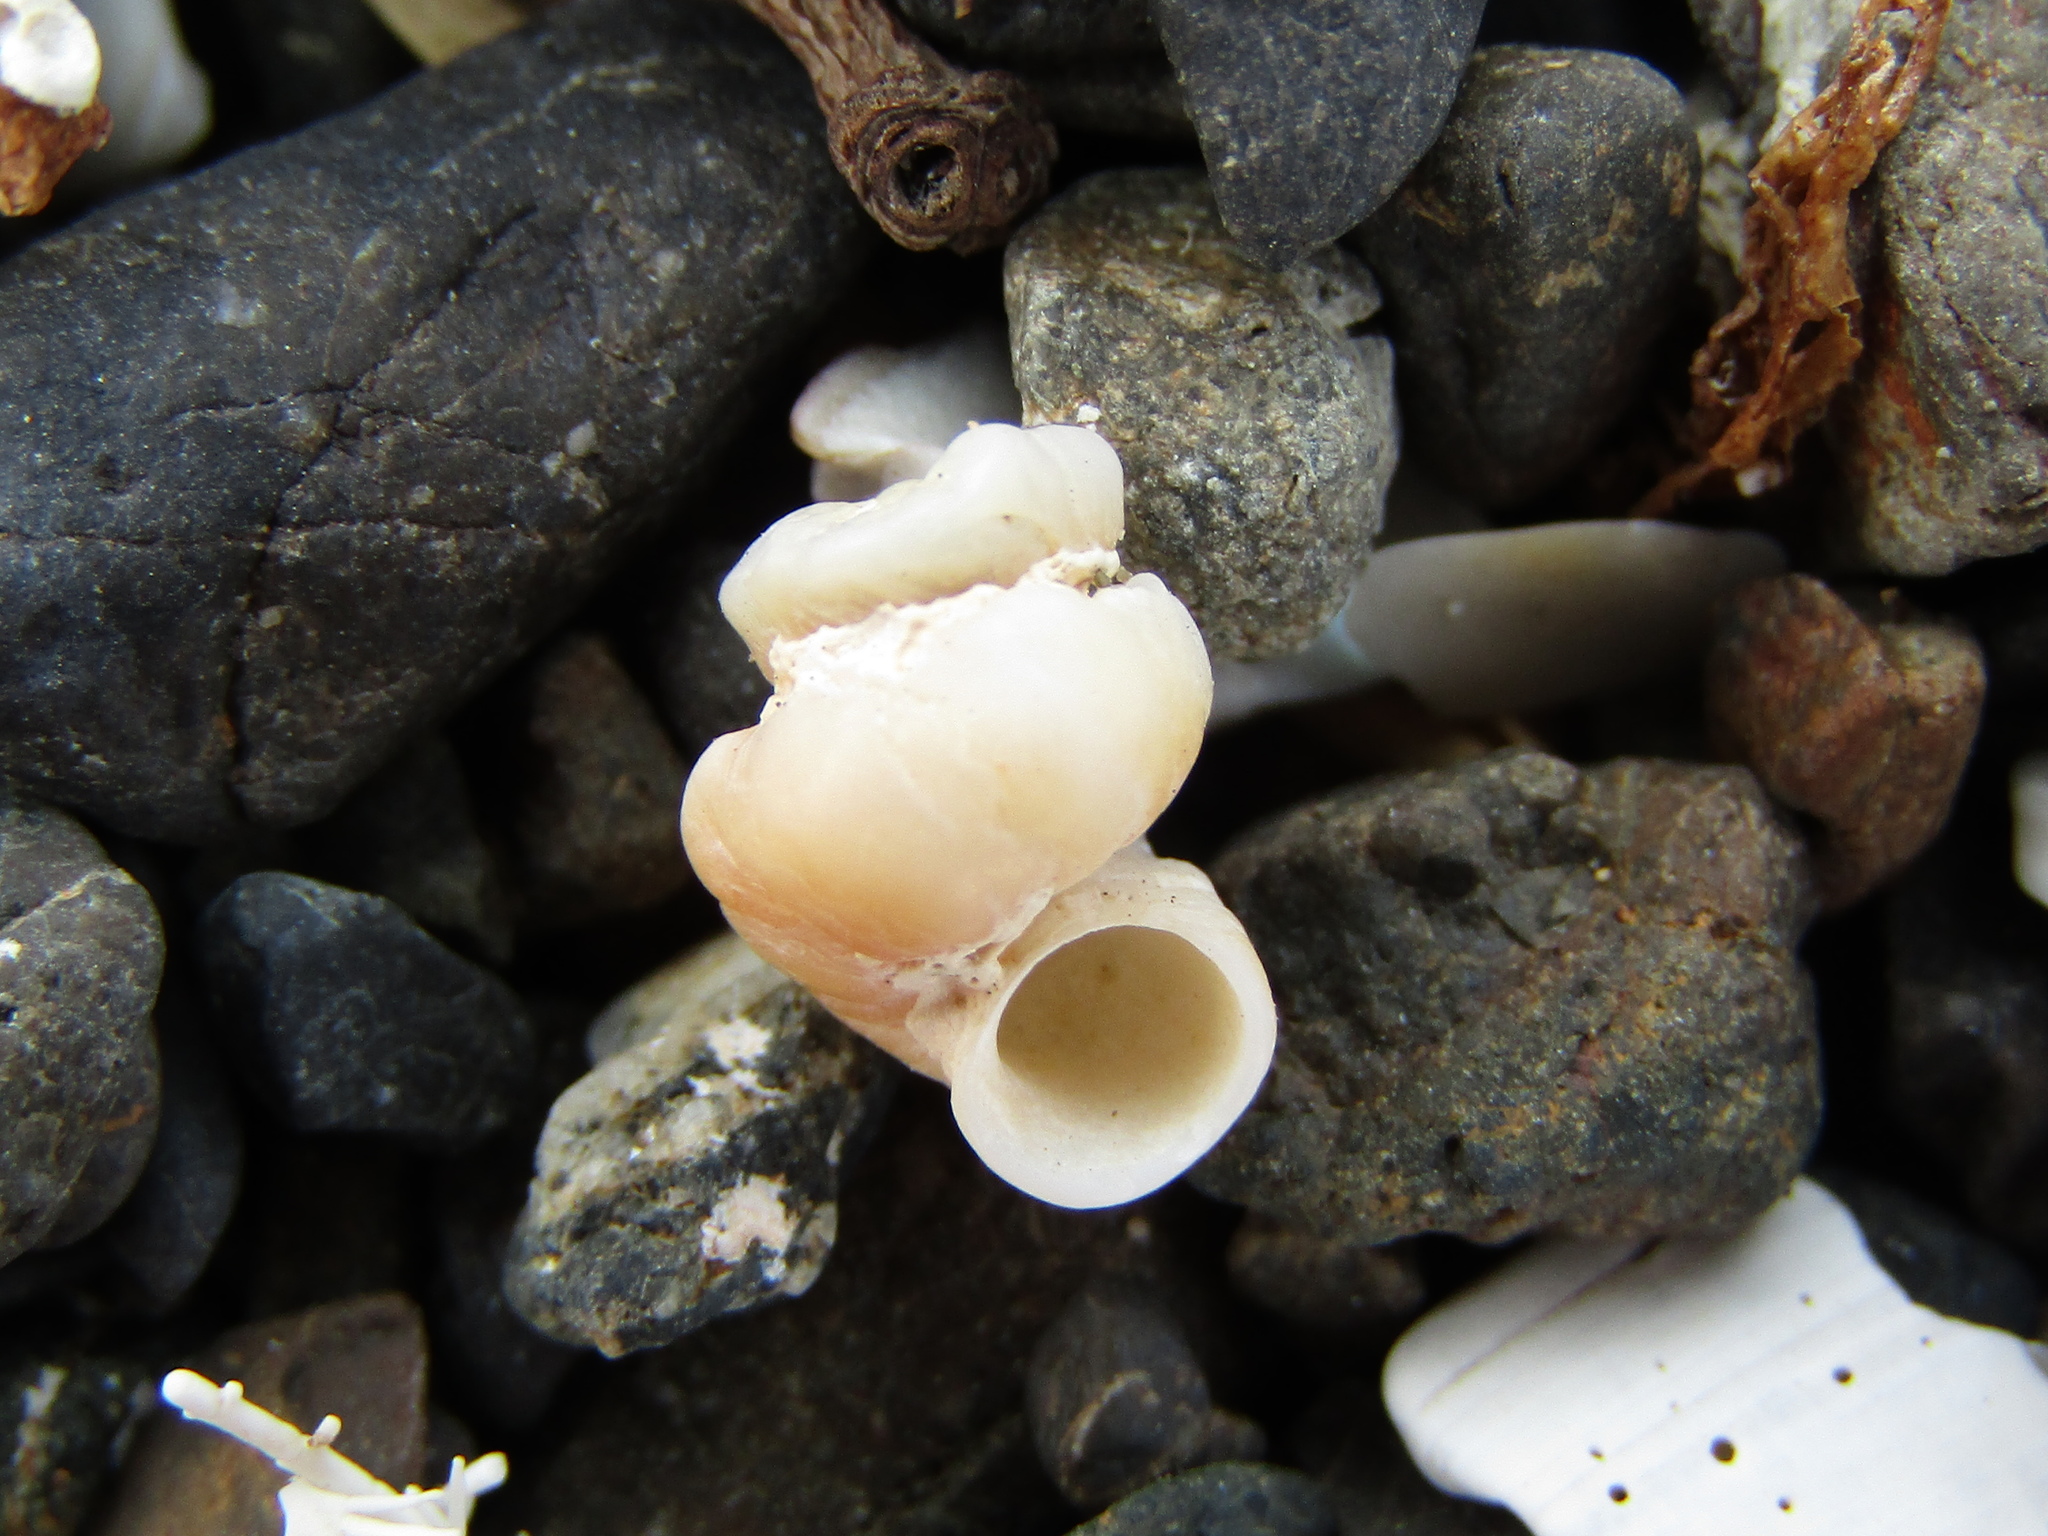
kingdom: Animalia
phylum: Mollusca
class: Gastropoda
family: Siliquariidae
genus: Stephopoma
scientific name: Stephopoma roseum
